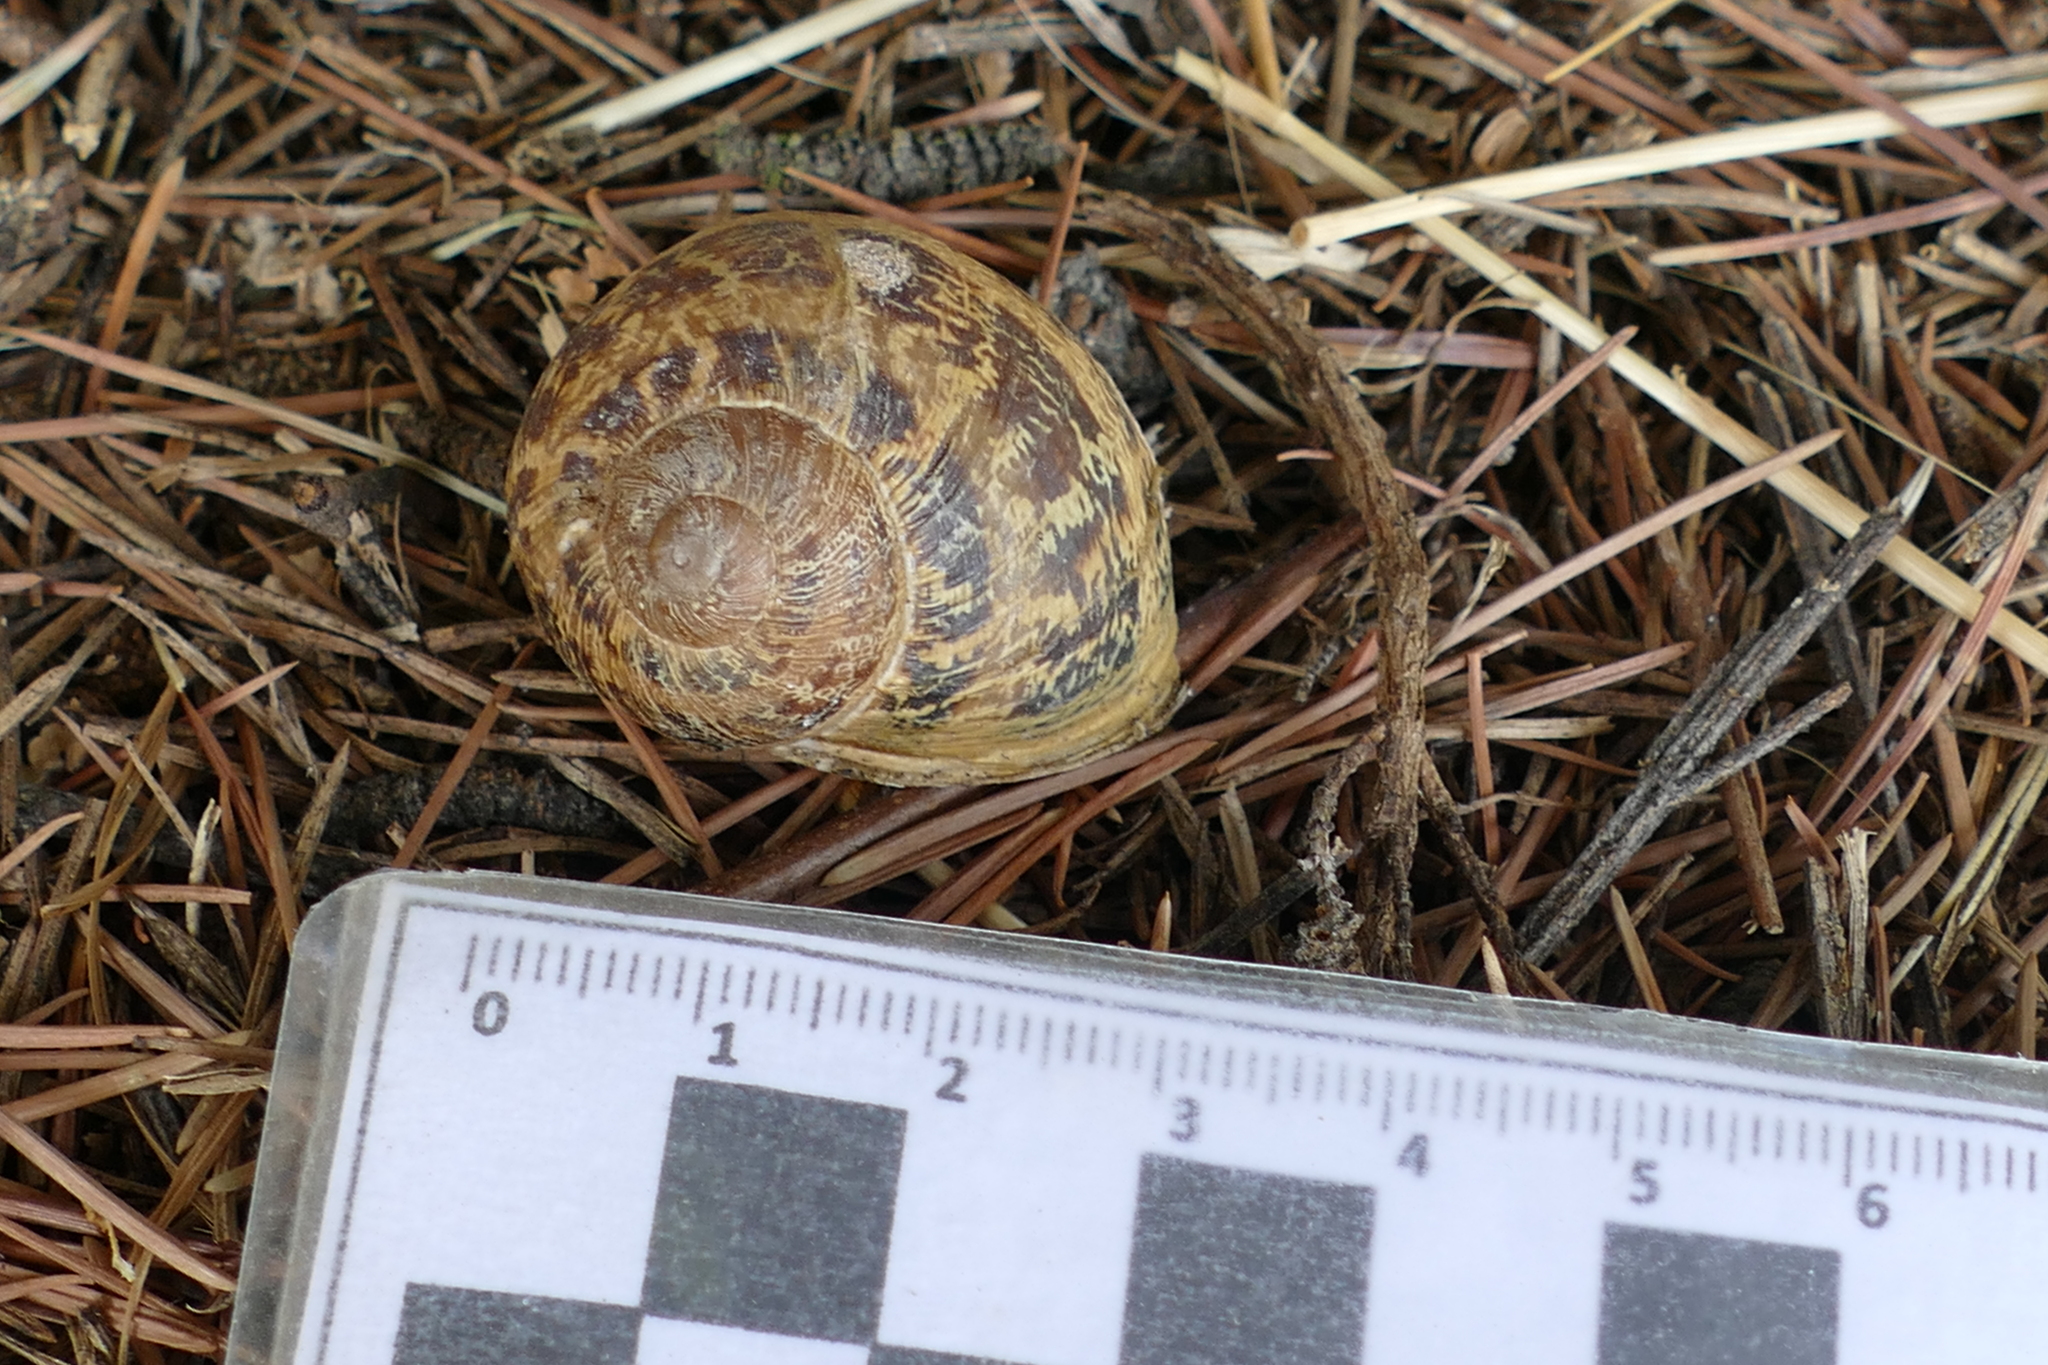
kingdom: Animalia
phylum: Mollusca
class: Gastropoda
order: Stylommatophora
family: Helicidae
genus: Cornu
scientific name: Cornu aspersum
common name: Brown garden snail
